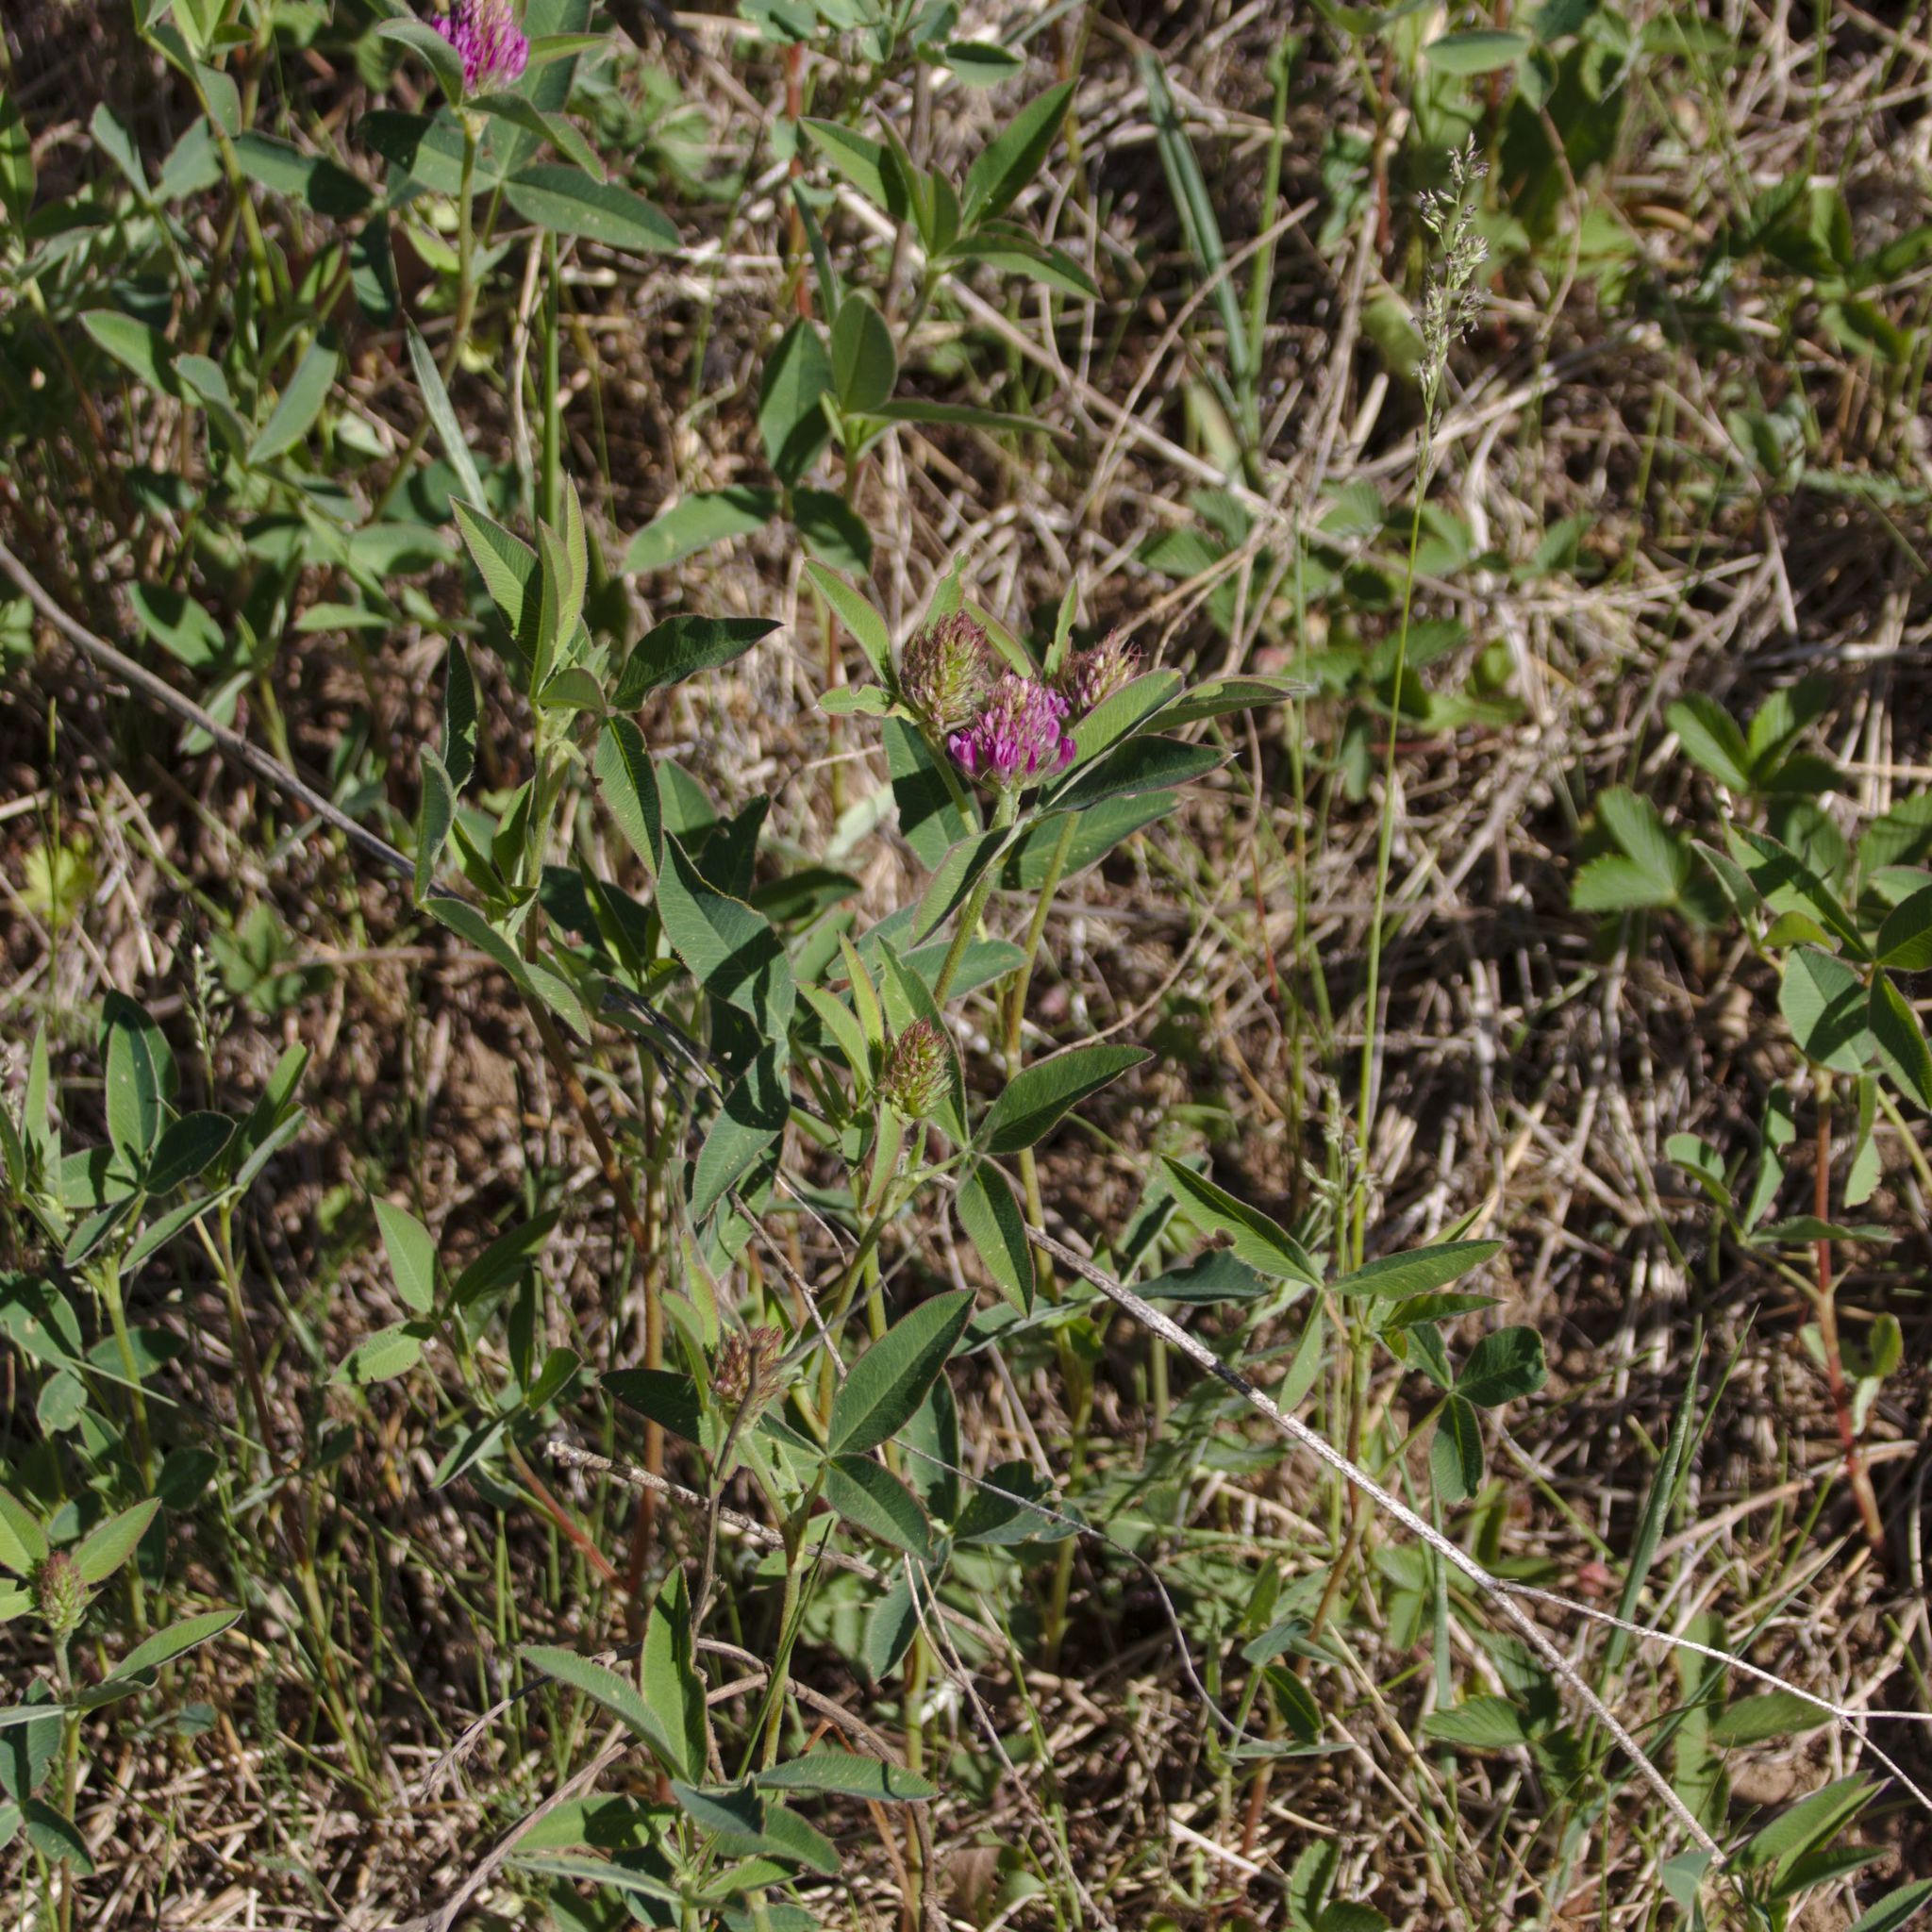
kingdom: Plantae
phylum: Tracheophyta
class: Magnoliopsida
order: Fabales
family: Fabaceae
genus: Trifolium
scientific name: Trifolium medium
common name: Zigzag clover
